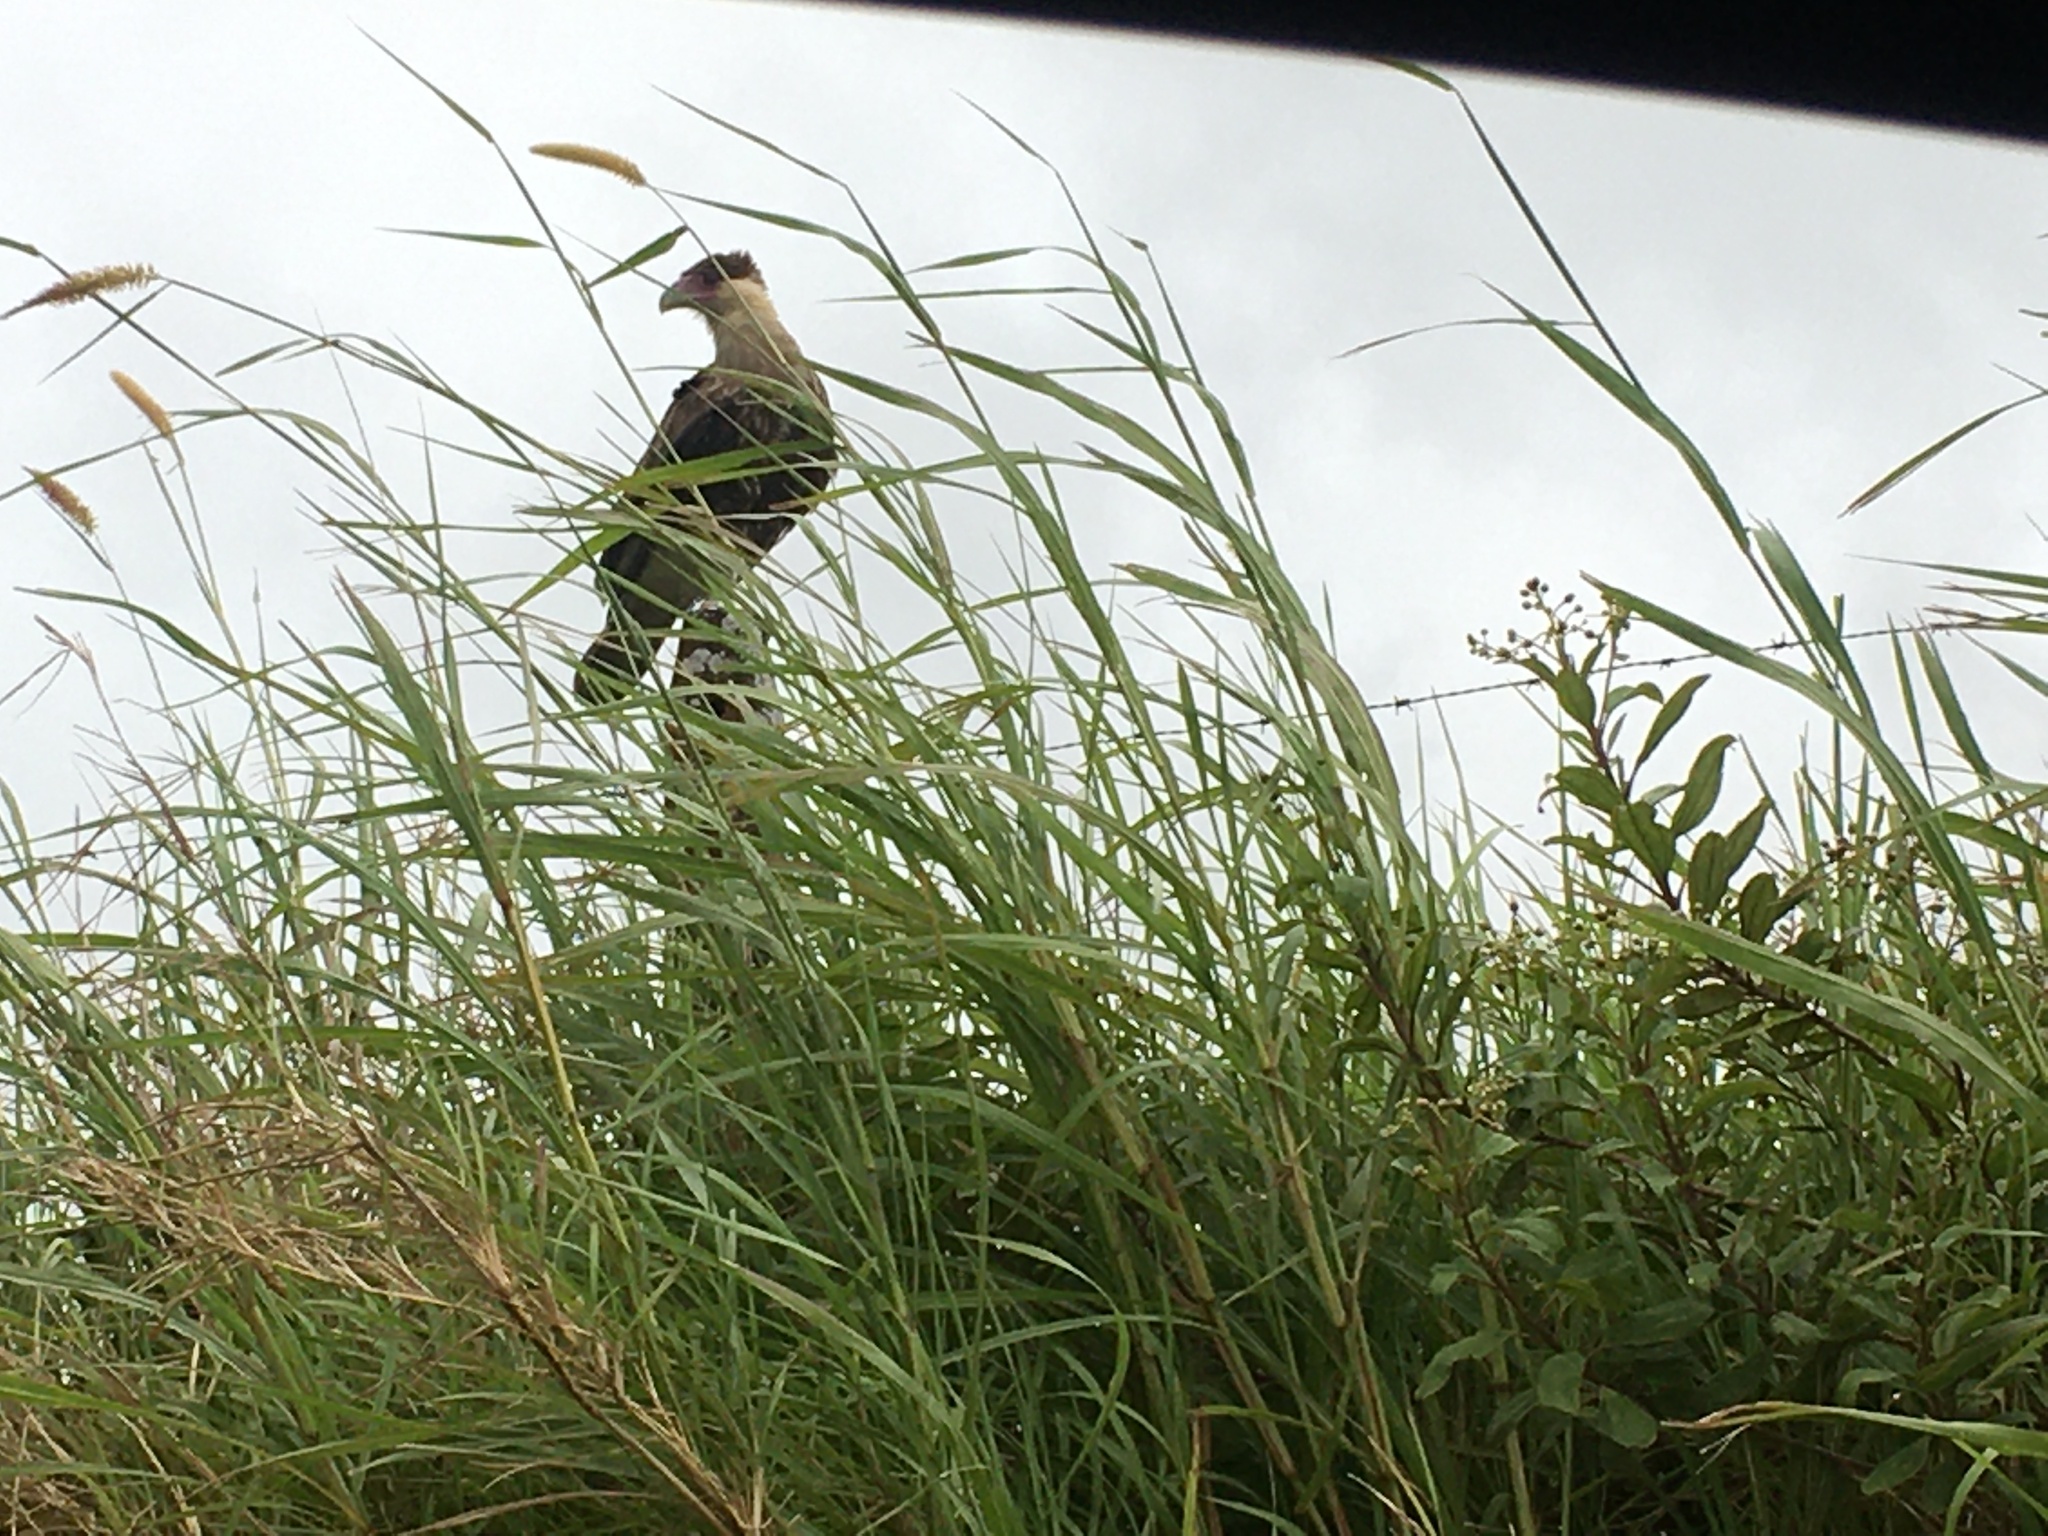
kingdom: Animalia
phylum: Chordata
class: Aves
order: Falconiformes
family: Falconidae
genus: Caracara
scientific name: Caracara plancus
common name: Southern caracara
